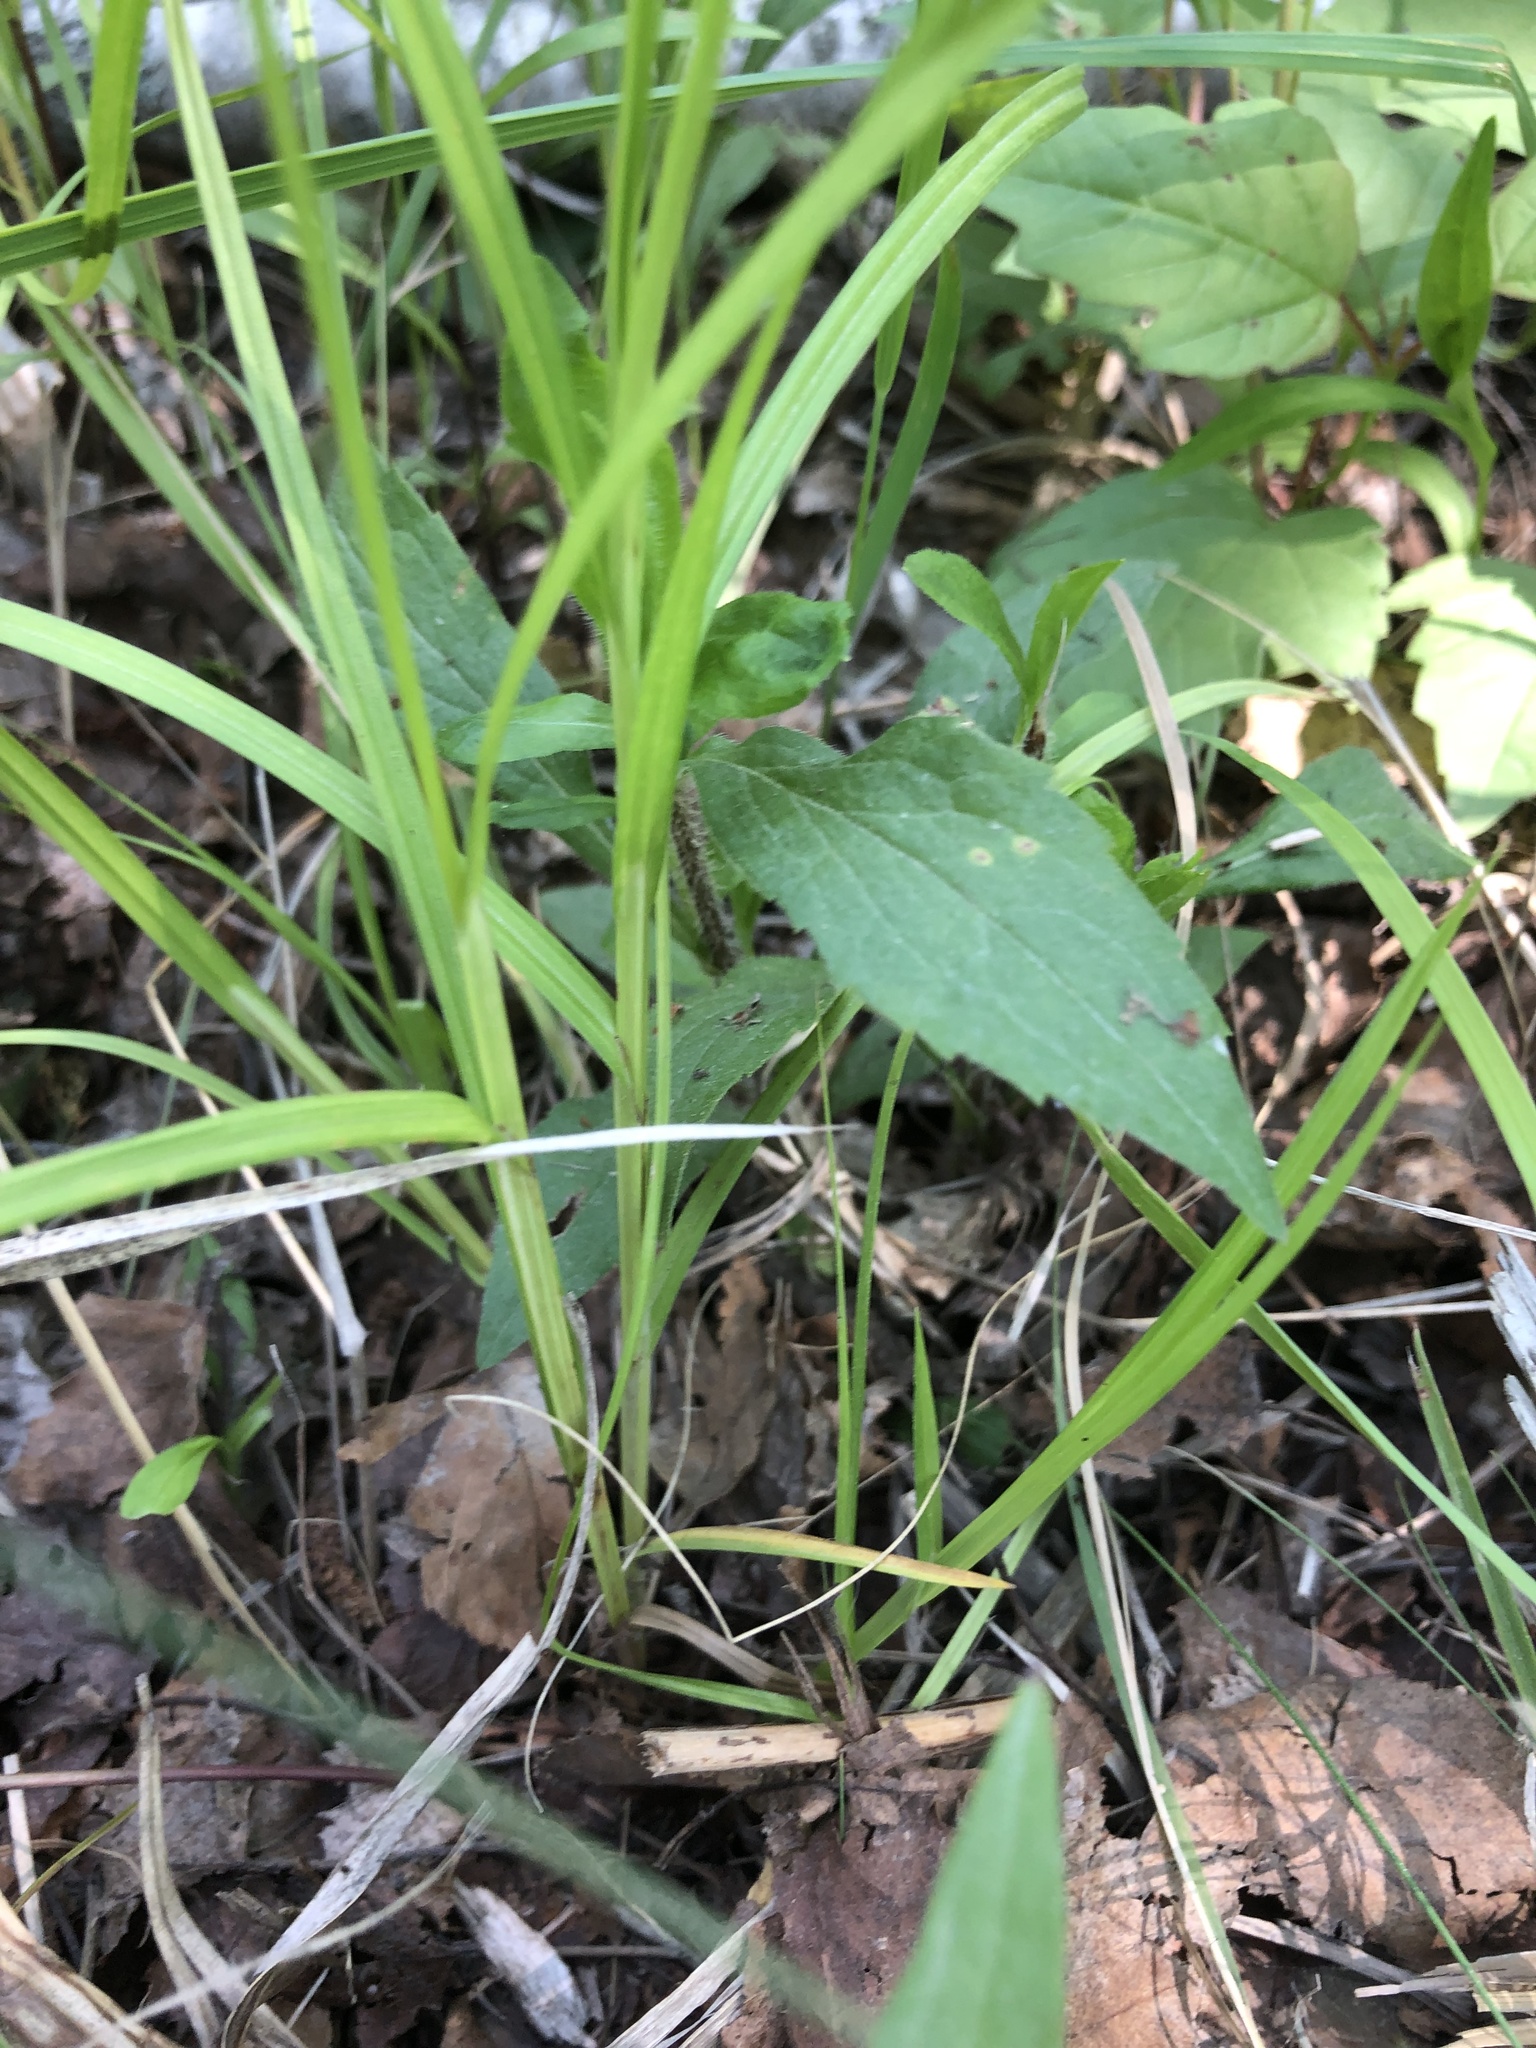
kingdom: Plantae
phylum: Tracheophyta
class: Liliopsida
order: Poales
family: Cyperaceae
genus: Carex
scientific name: Carex echinodes
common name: Marsh straw sedge
